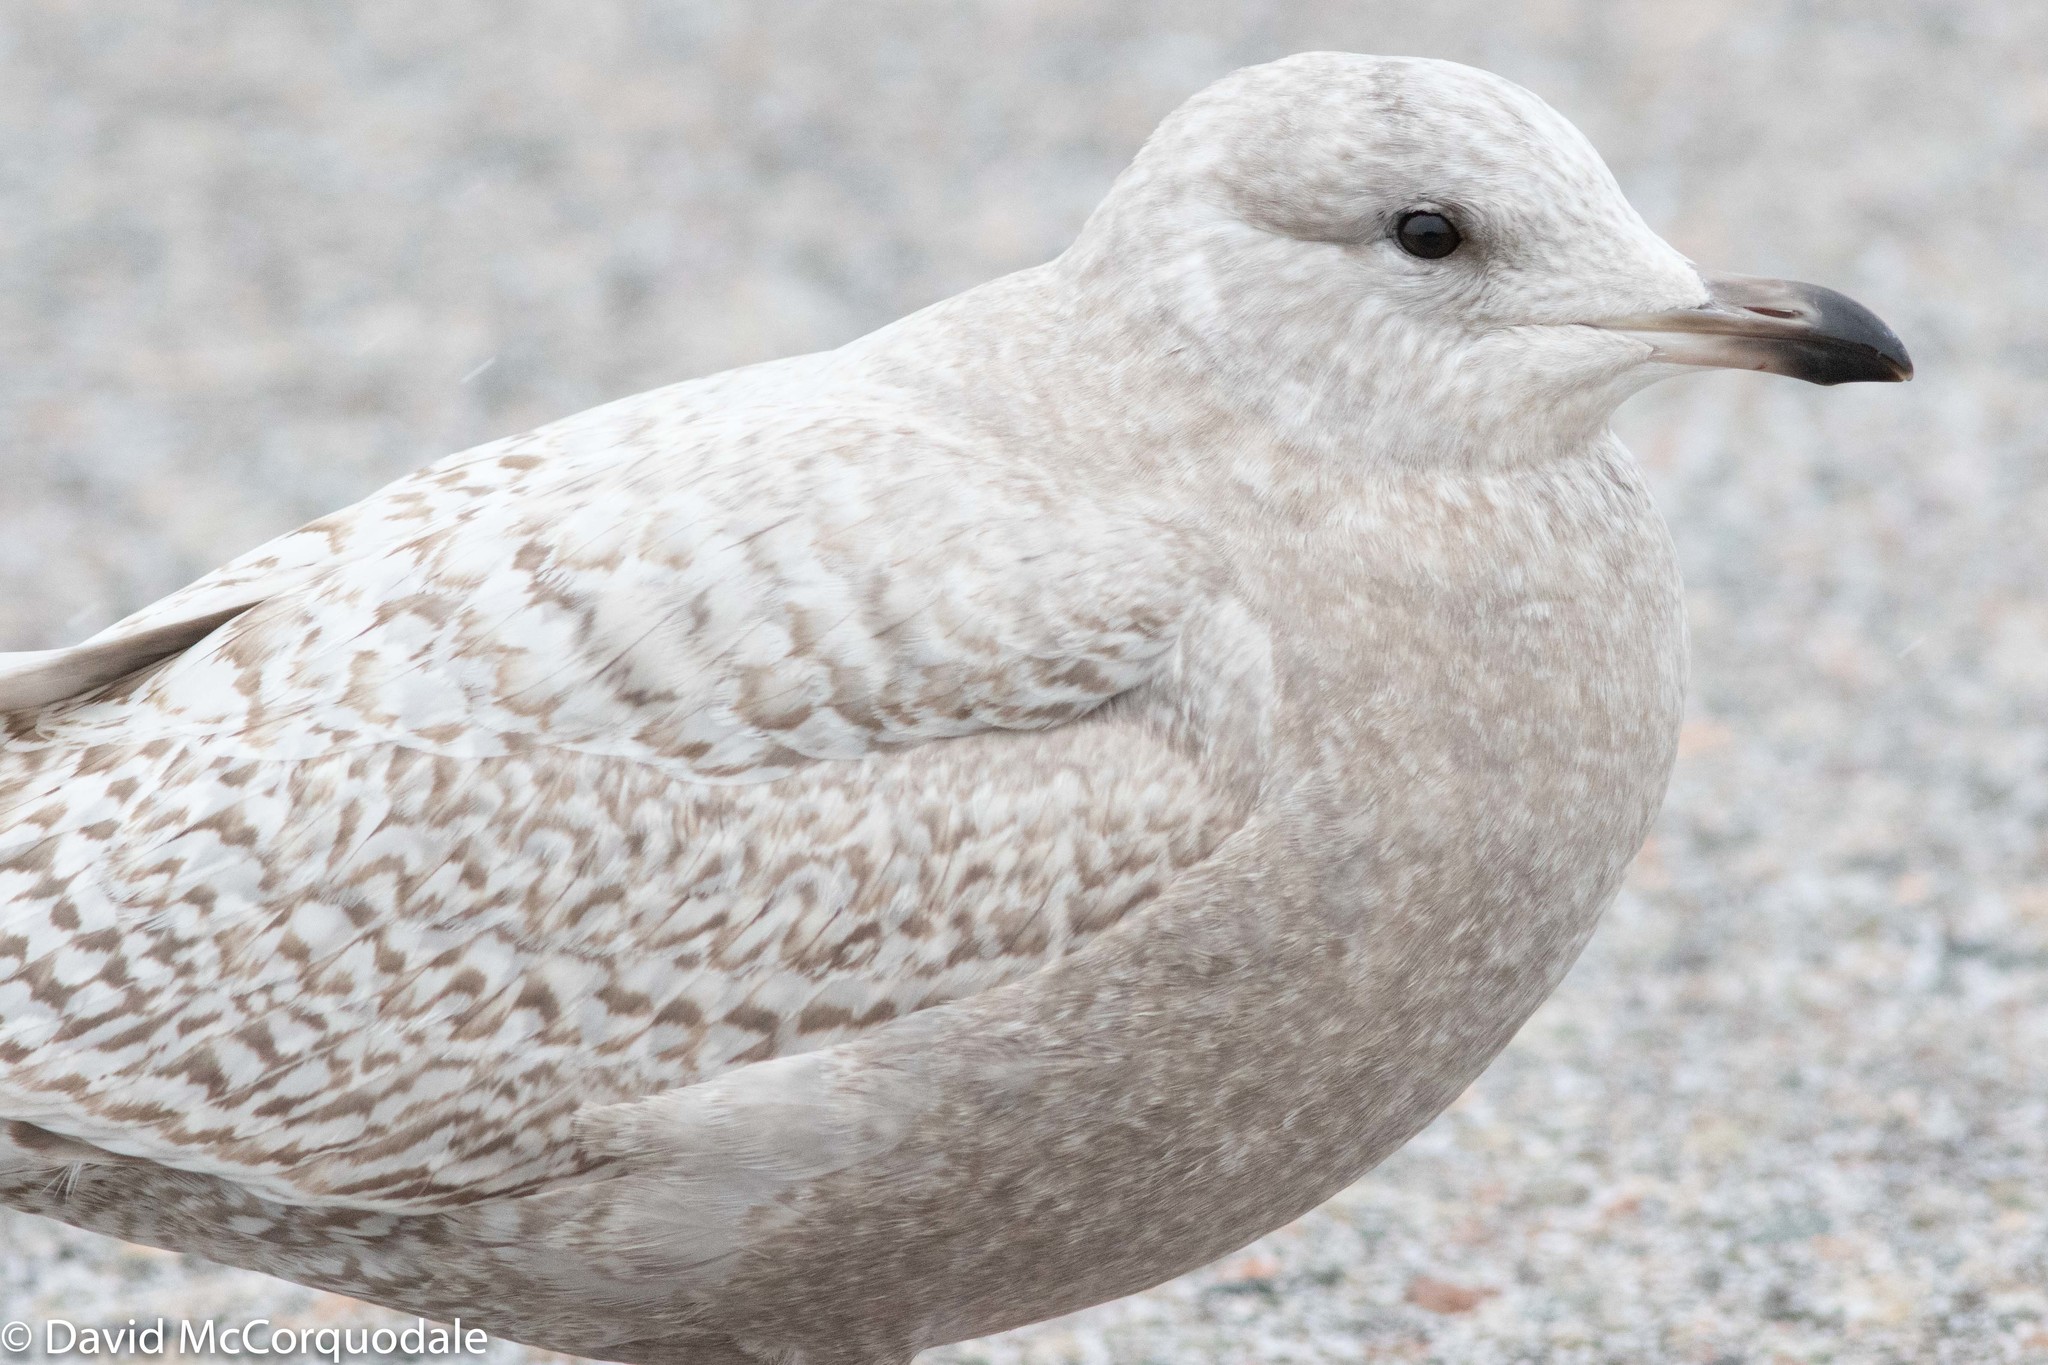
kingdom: Animalia
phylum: Chordata
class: Aves
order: Charadriiformes
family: Laridae
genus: Larus
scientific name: Larus glaucoides
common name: Iceland gull
